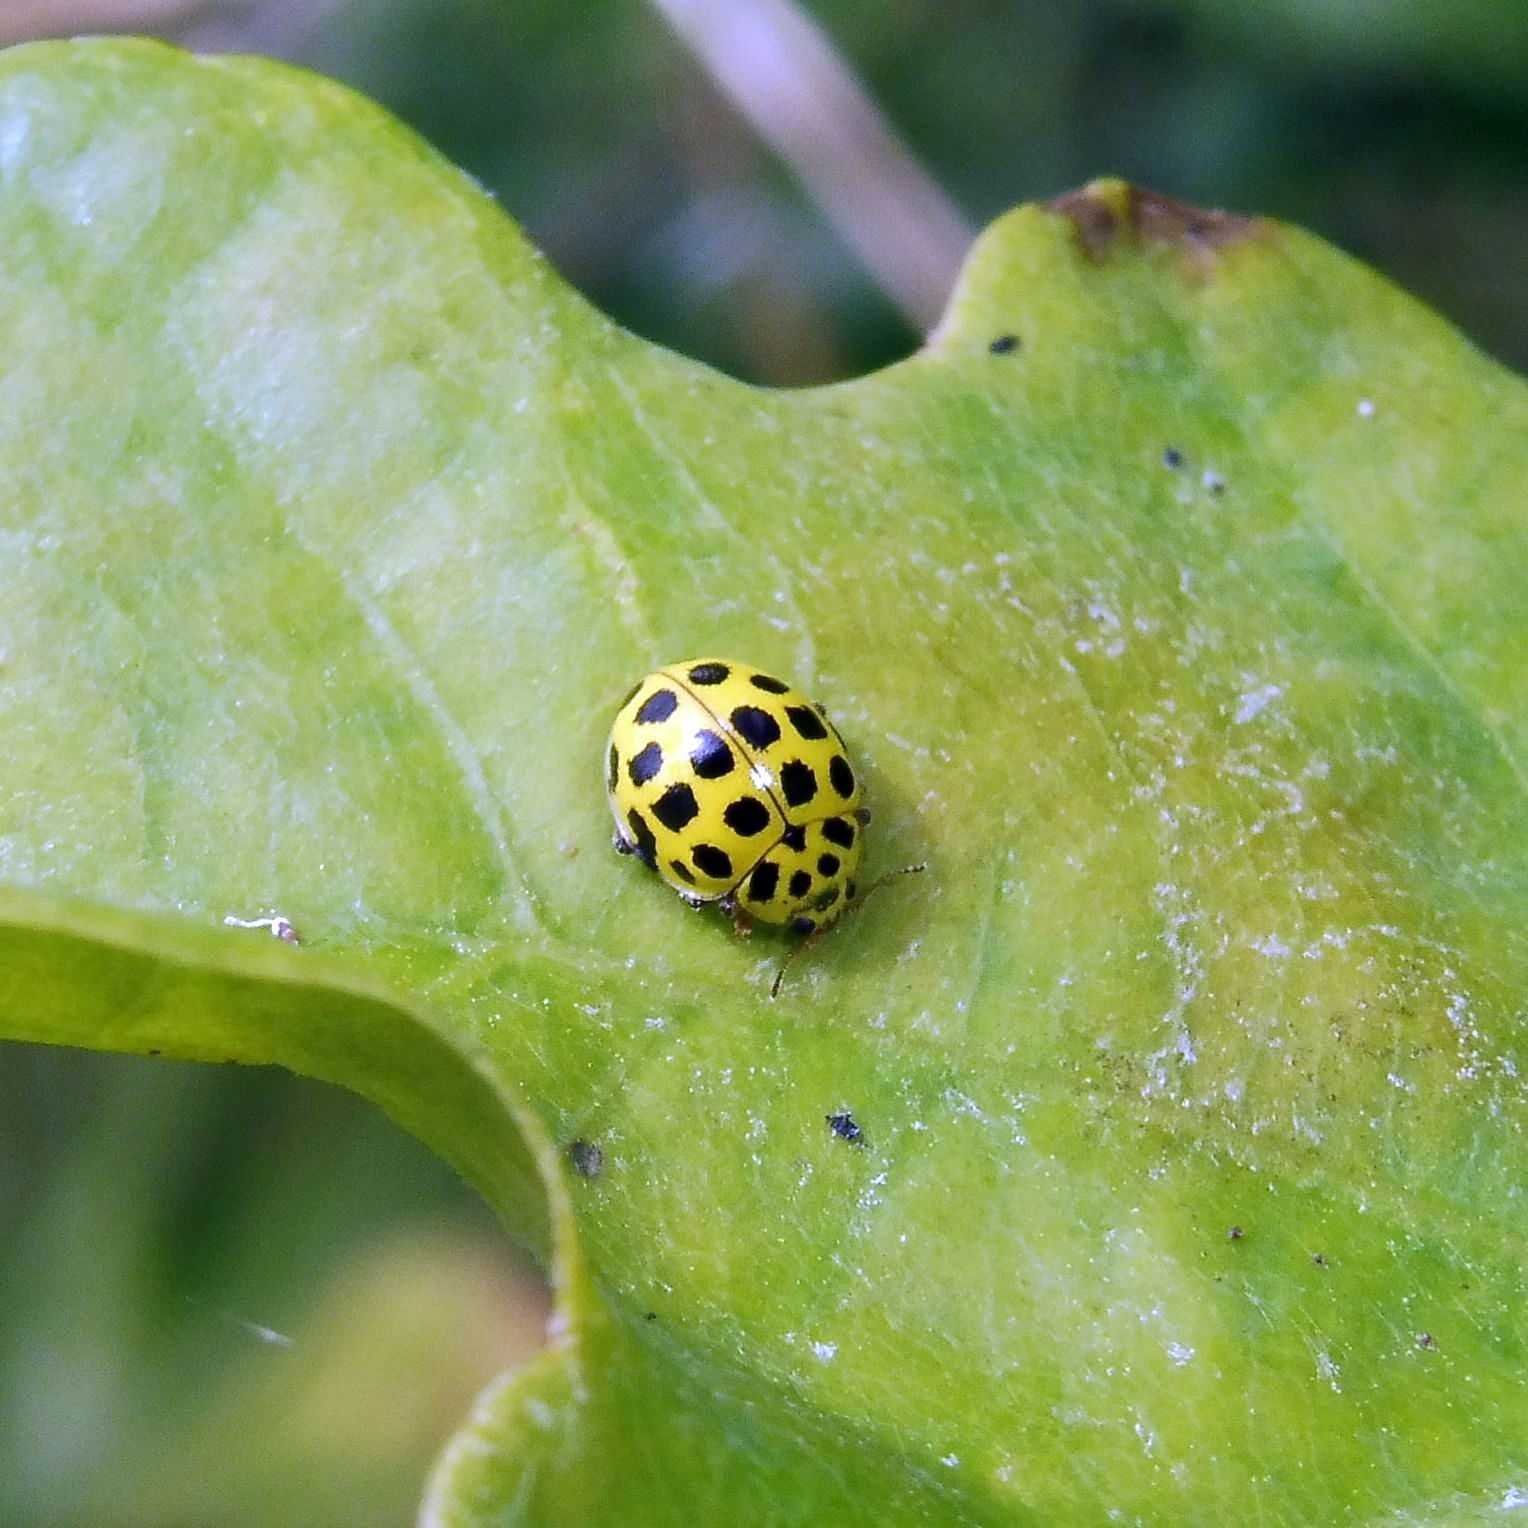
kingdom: Animalia
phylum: Arthropoda
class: Insecta
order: Coleoptera
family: Coccinellidae
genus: Psyllobora
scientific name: Psyllobora vigintiduopunctata
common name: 22-spot ladybird
